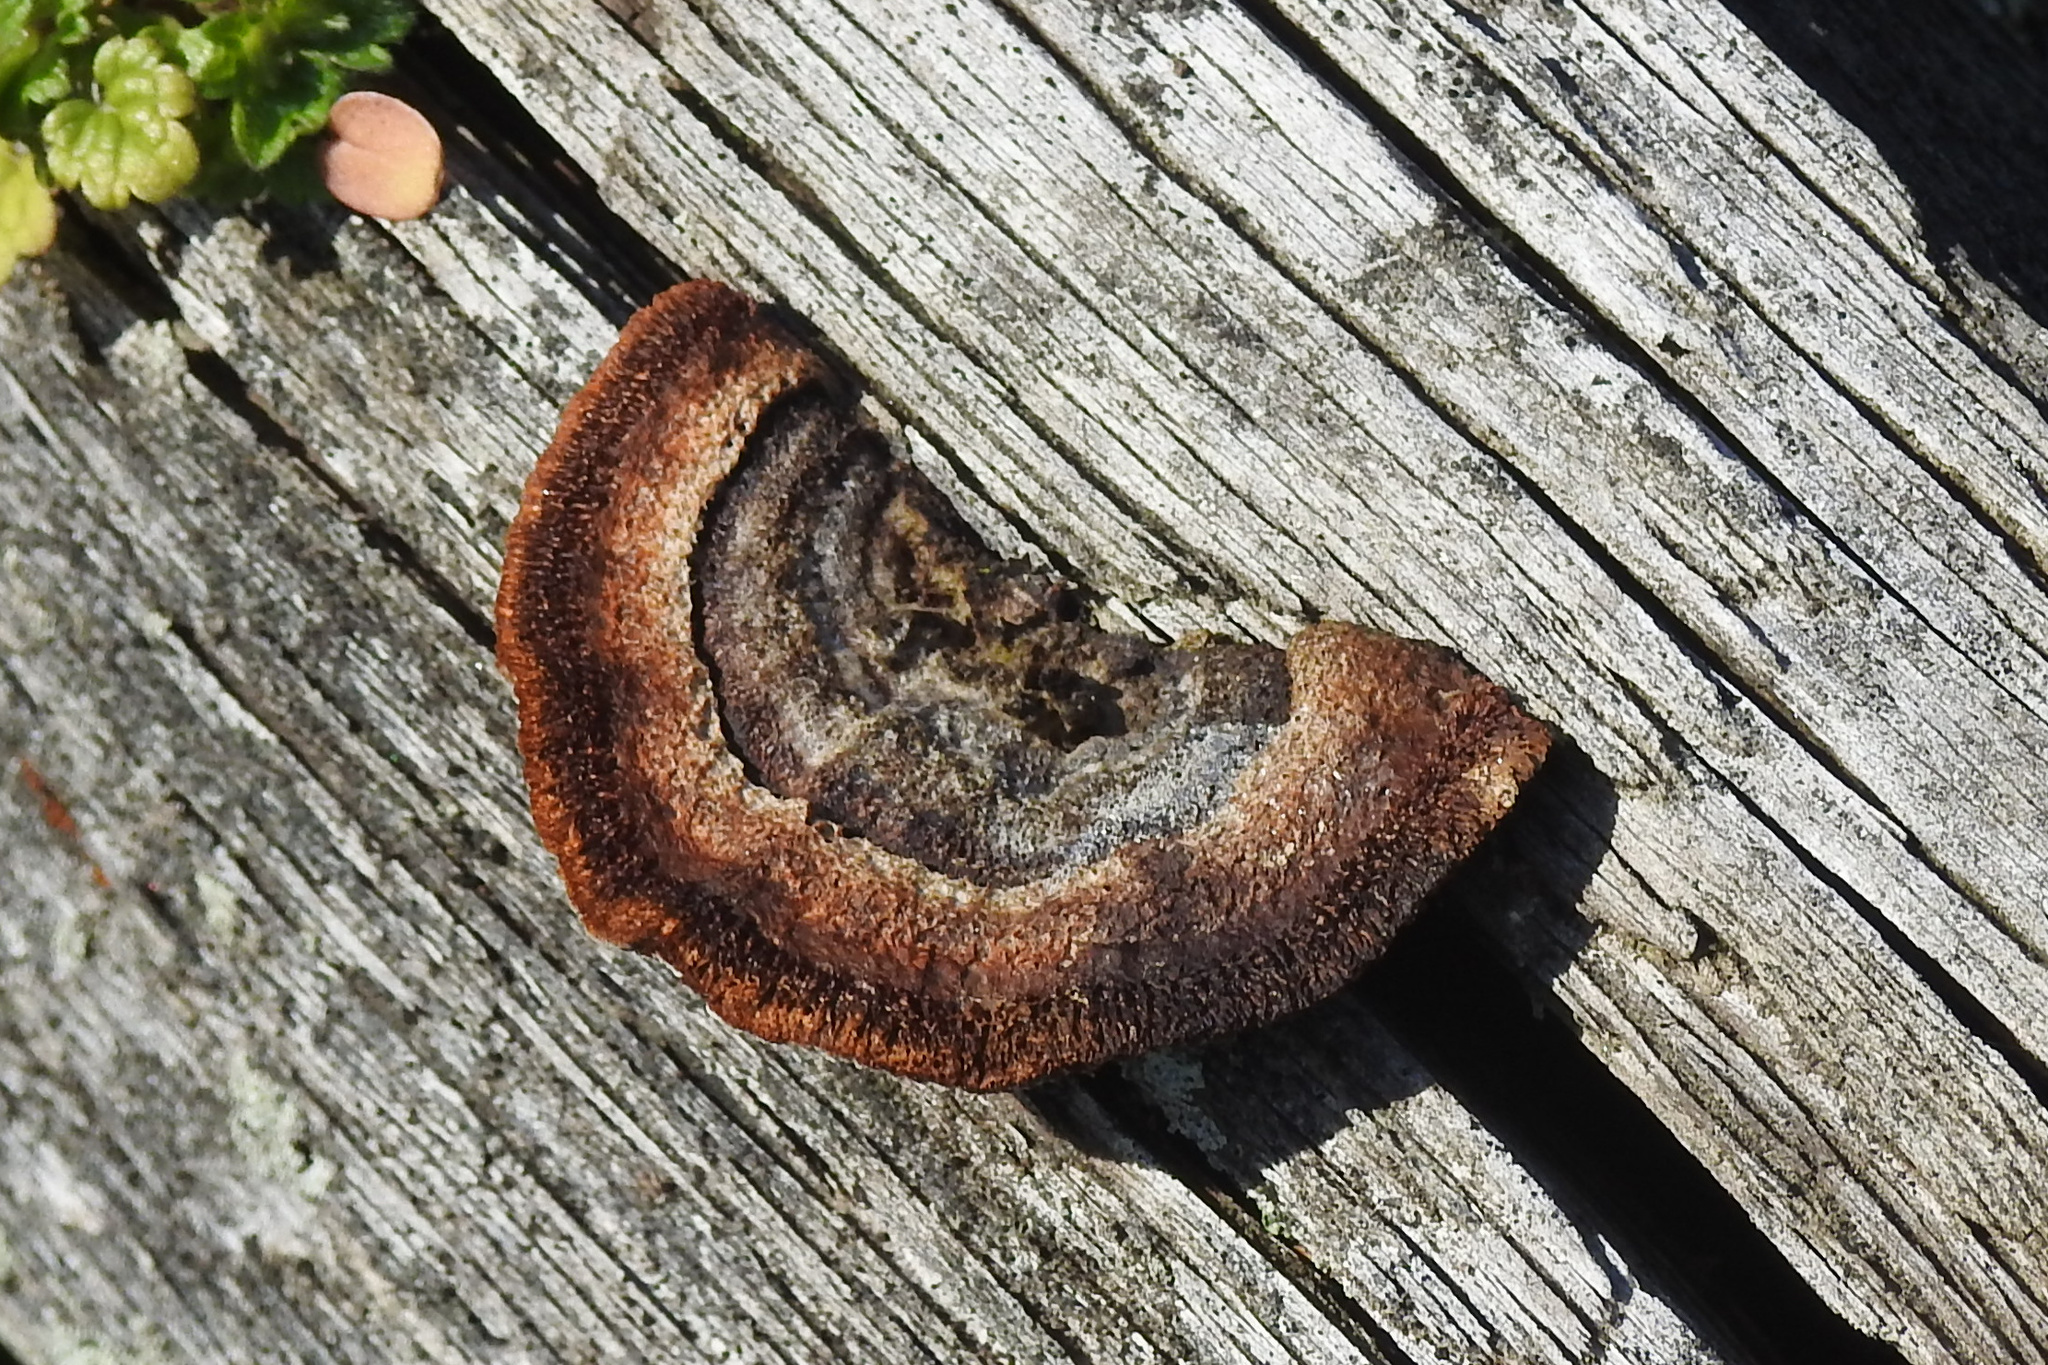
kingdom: Fungi
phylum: Basidiomycota
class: Agaricomycetes
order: Gloeophyllales
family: Gloeophyllaceae
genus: Gloeophyllum
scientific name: Gloeophyllum sepiarium
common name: Conifer mazegill
